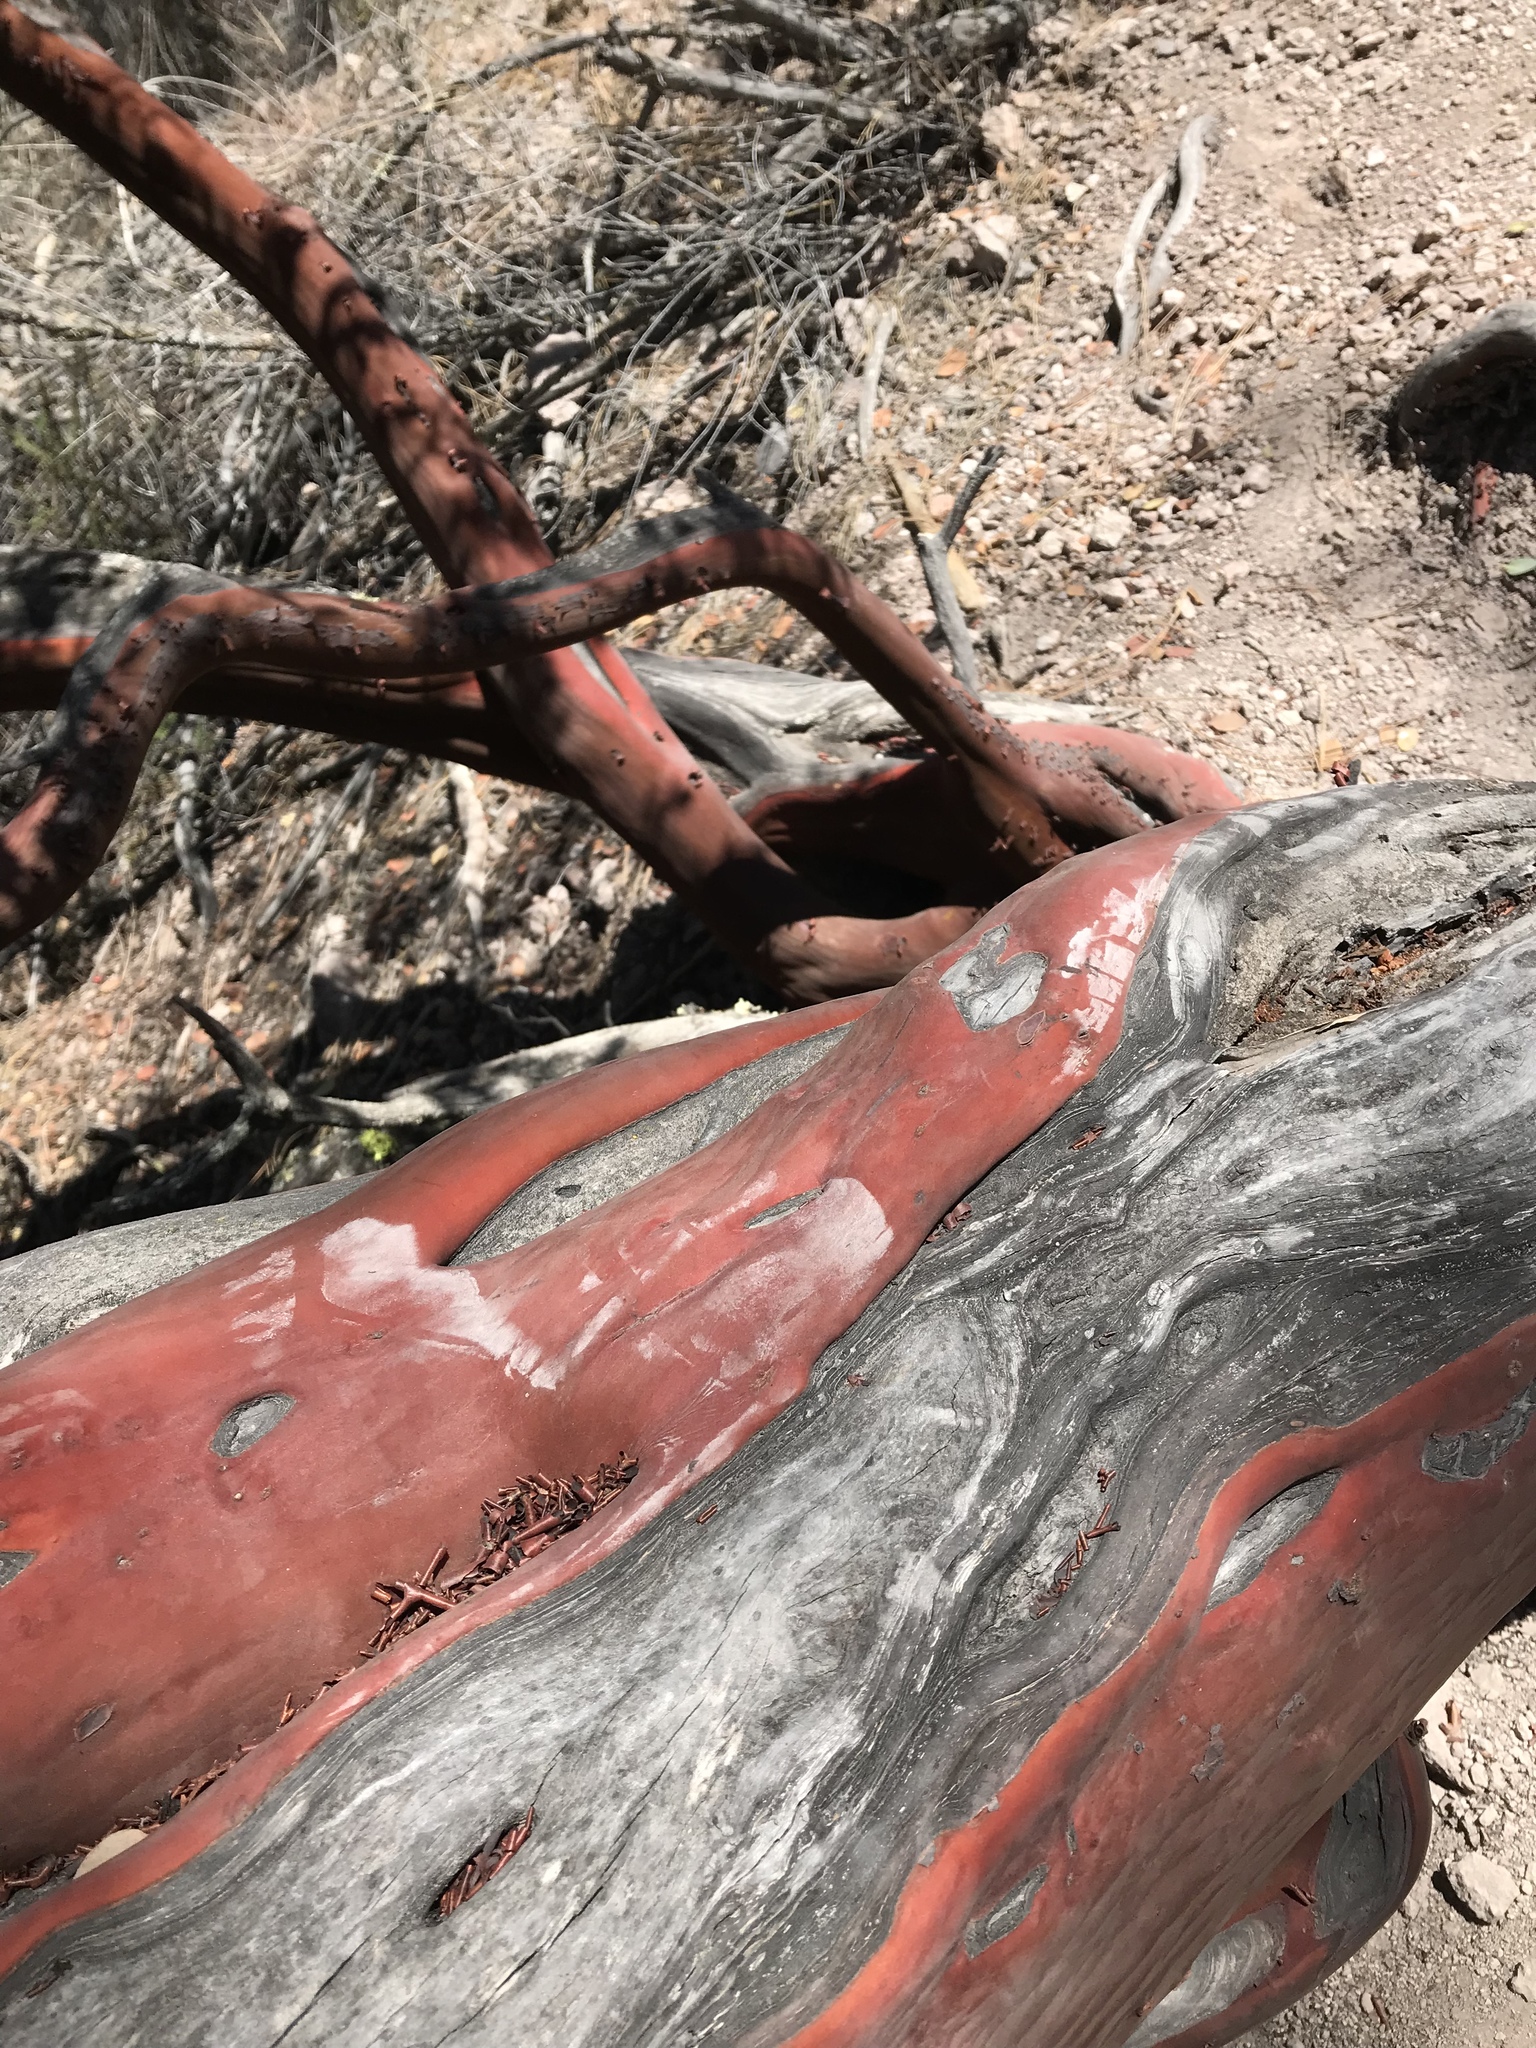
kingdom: Plantae
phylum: Tracheophyta
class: Magnoliopsida
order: Ericales
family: Ericaceae
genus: Arctostaphylos
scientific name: Arctostaphylos glauca
